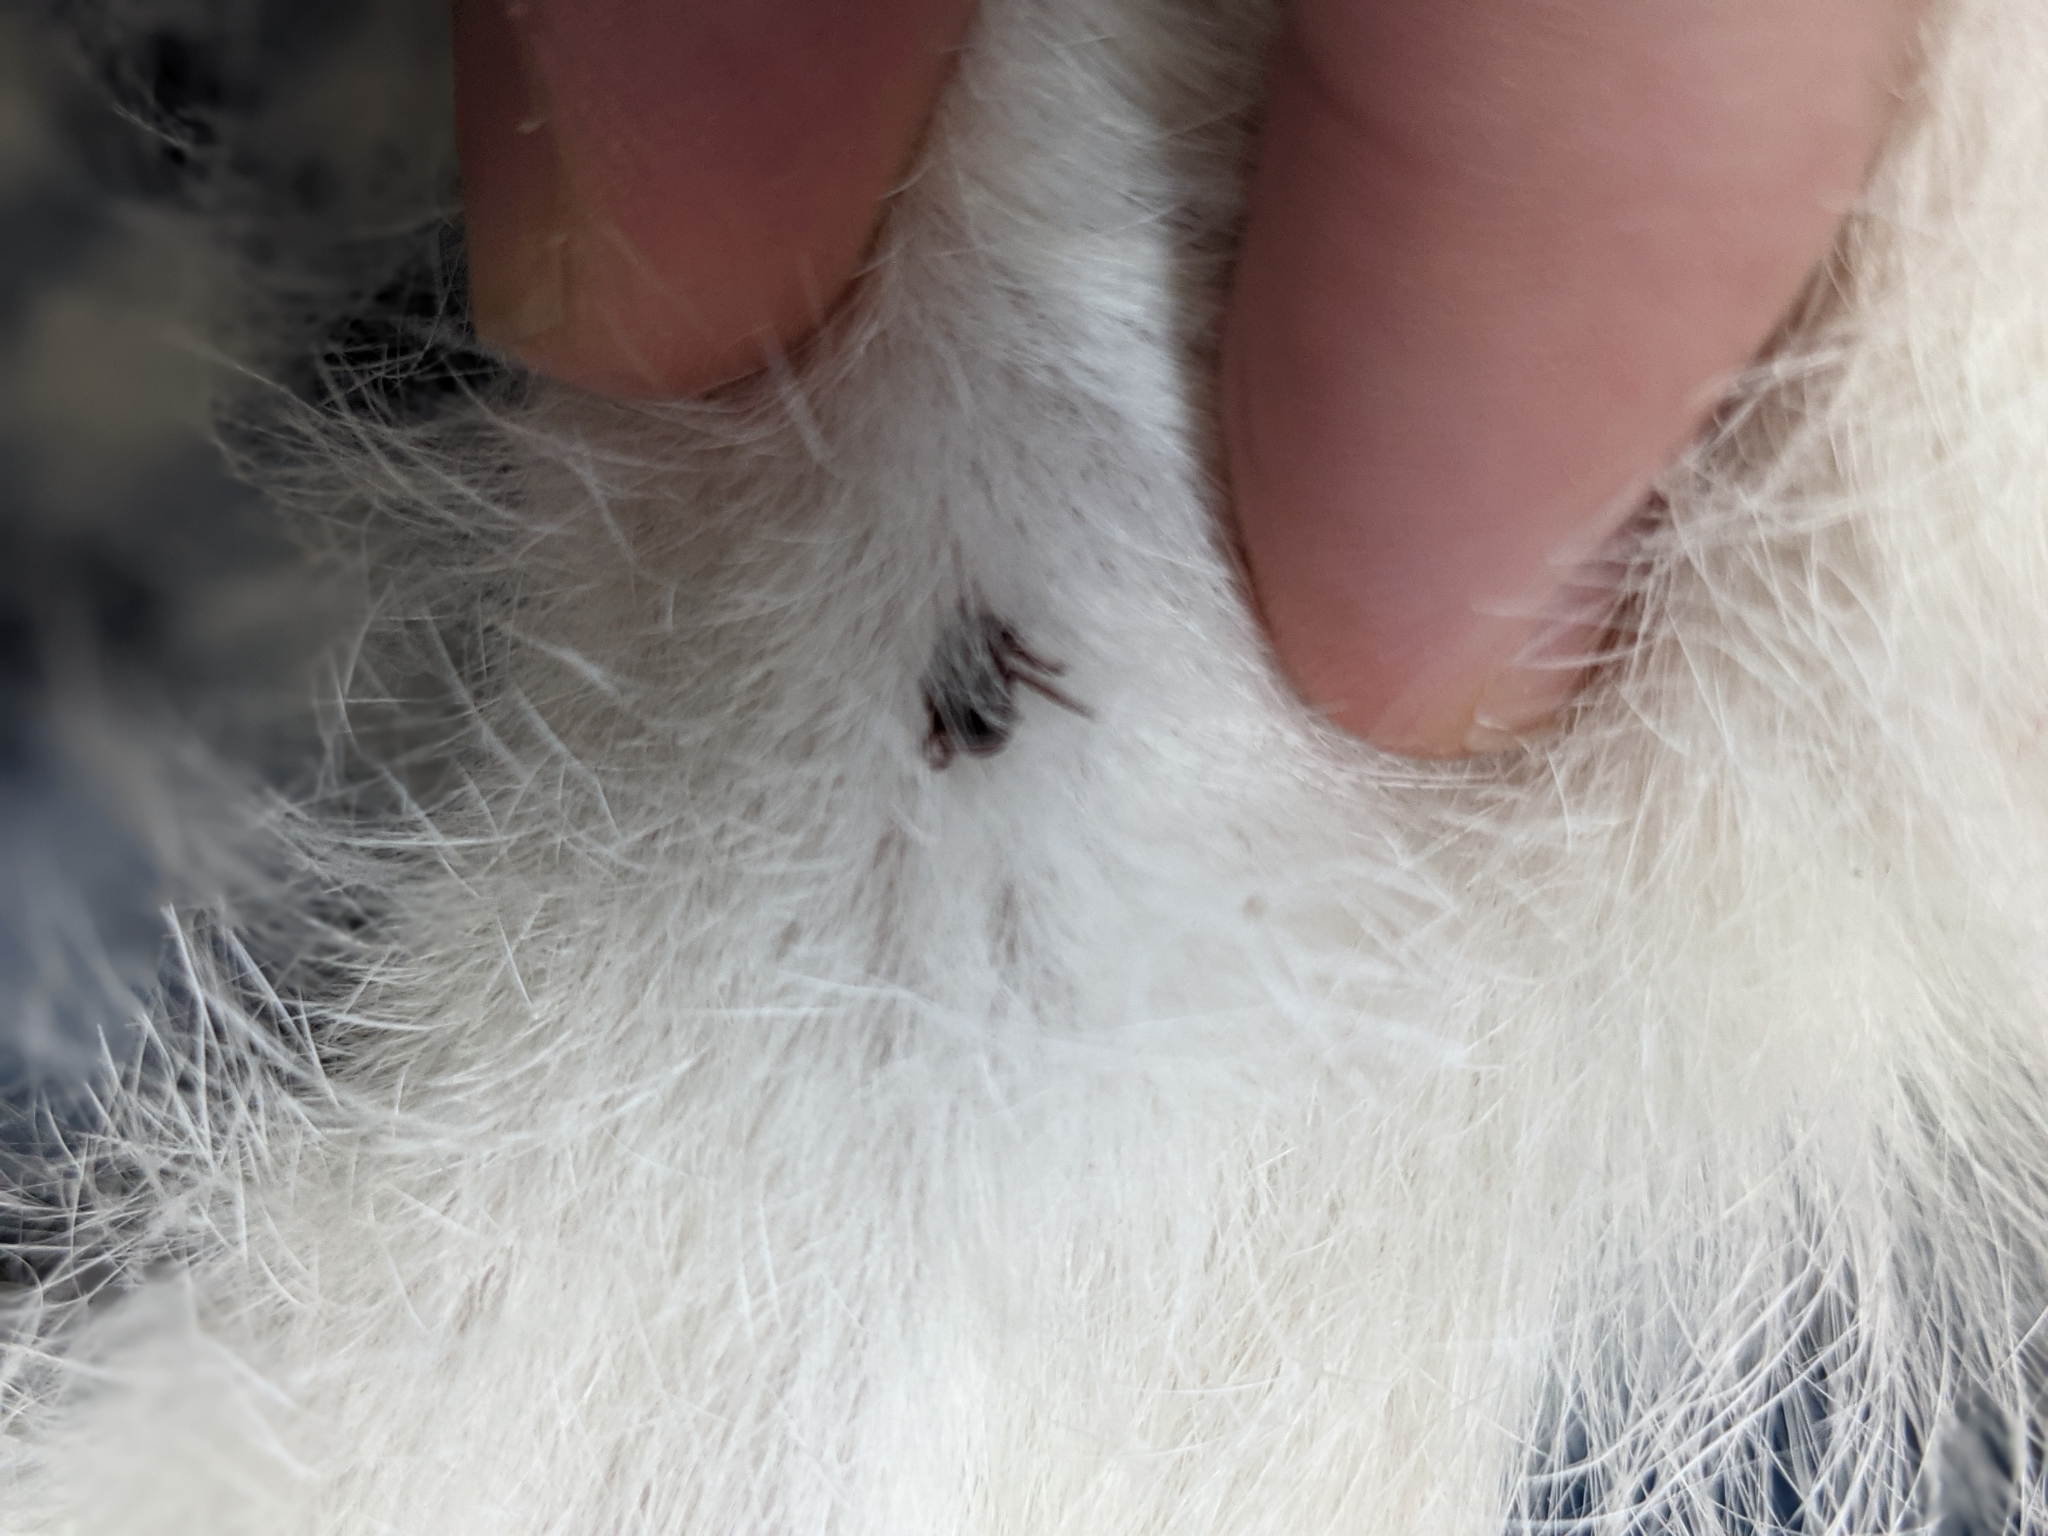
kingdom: Animalia
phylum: Arthropoda
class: Arachnida
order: Ixodida
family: Ixodidae
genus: Dermacentor
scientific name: Dermacentor variabilis
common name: American dog tick
